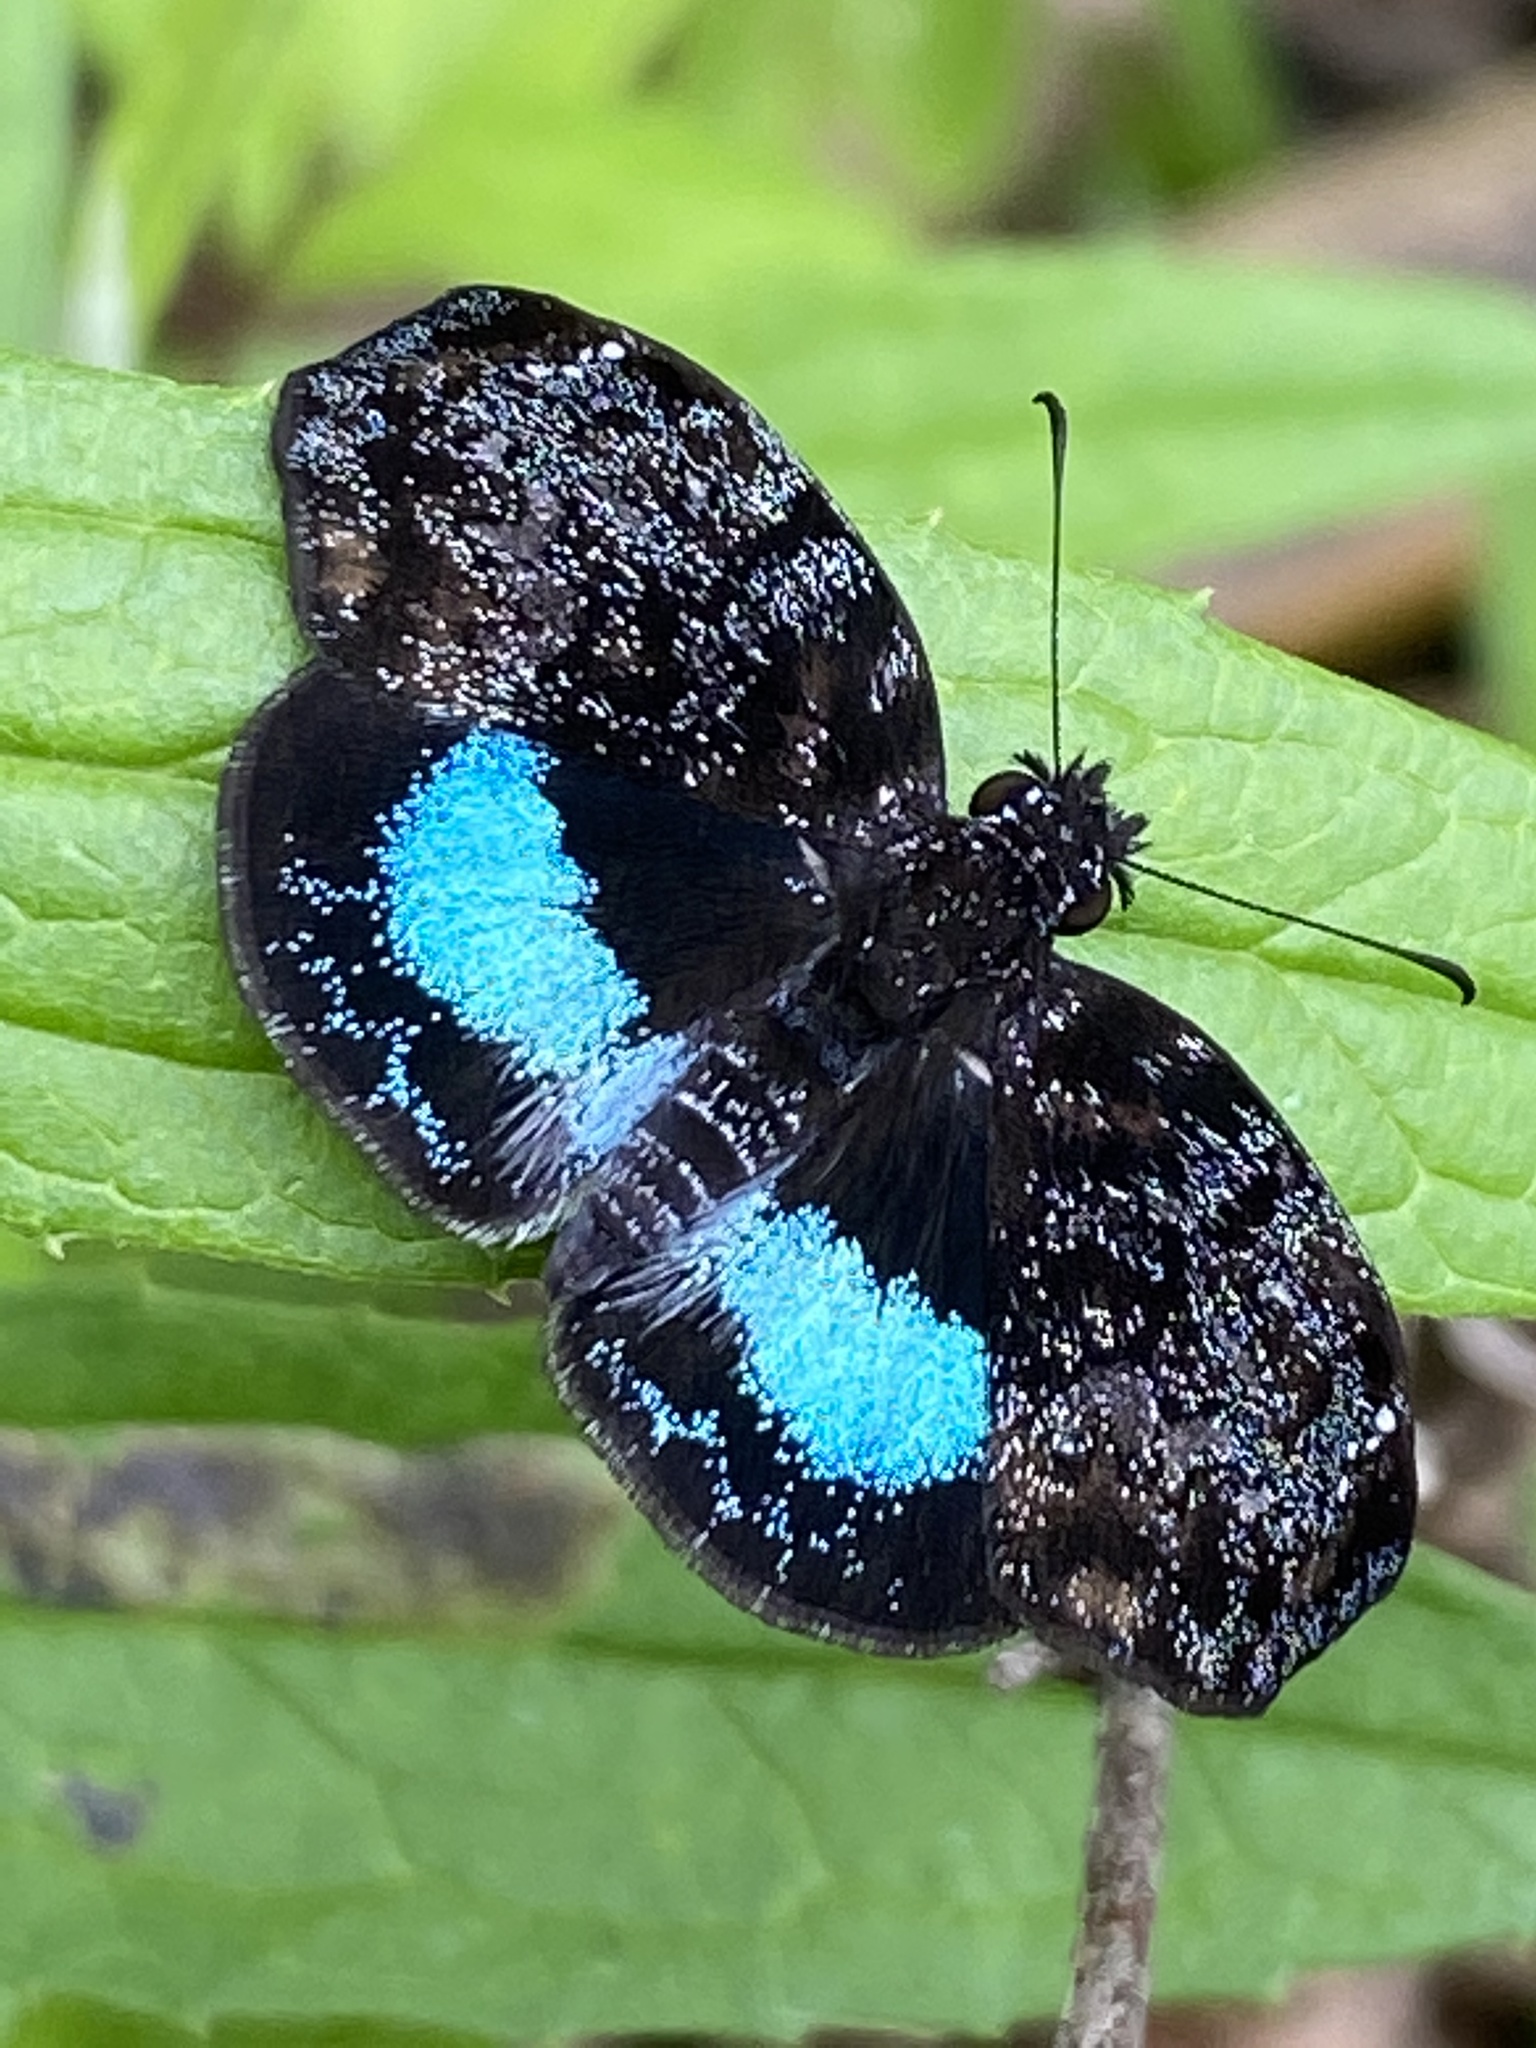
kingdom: Animalia
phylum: Arthropoda
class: Insecta
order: Lepidoptera
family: Hesperiidae
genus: Sostrata
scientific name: Sostrata
